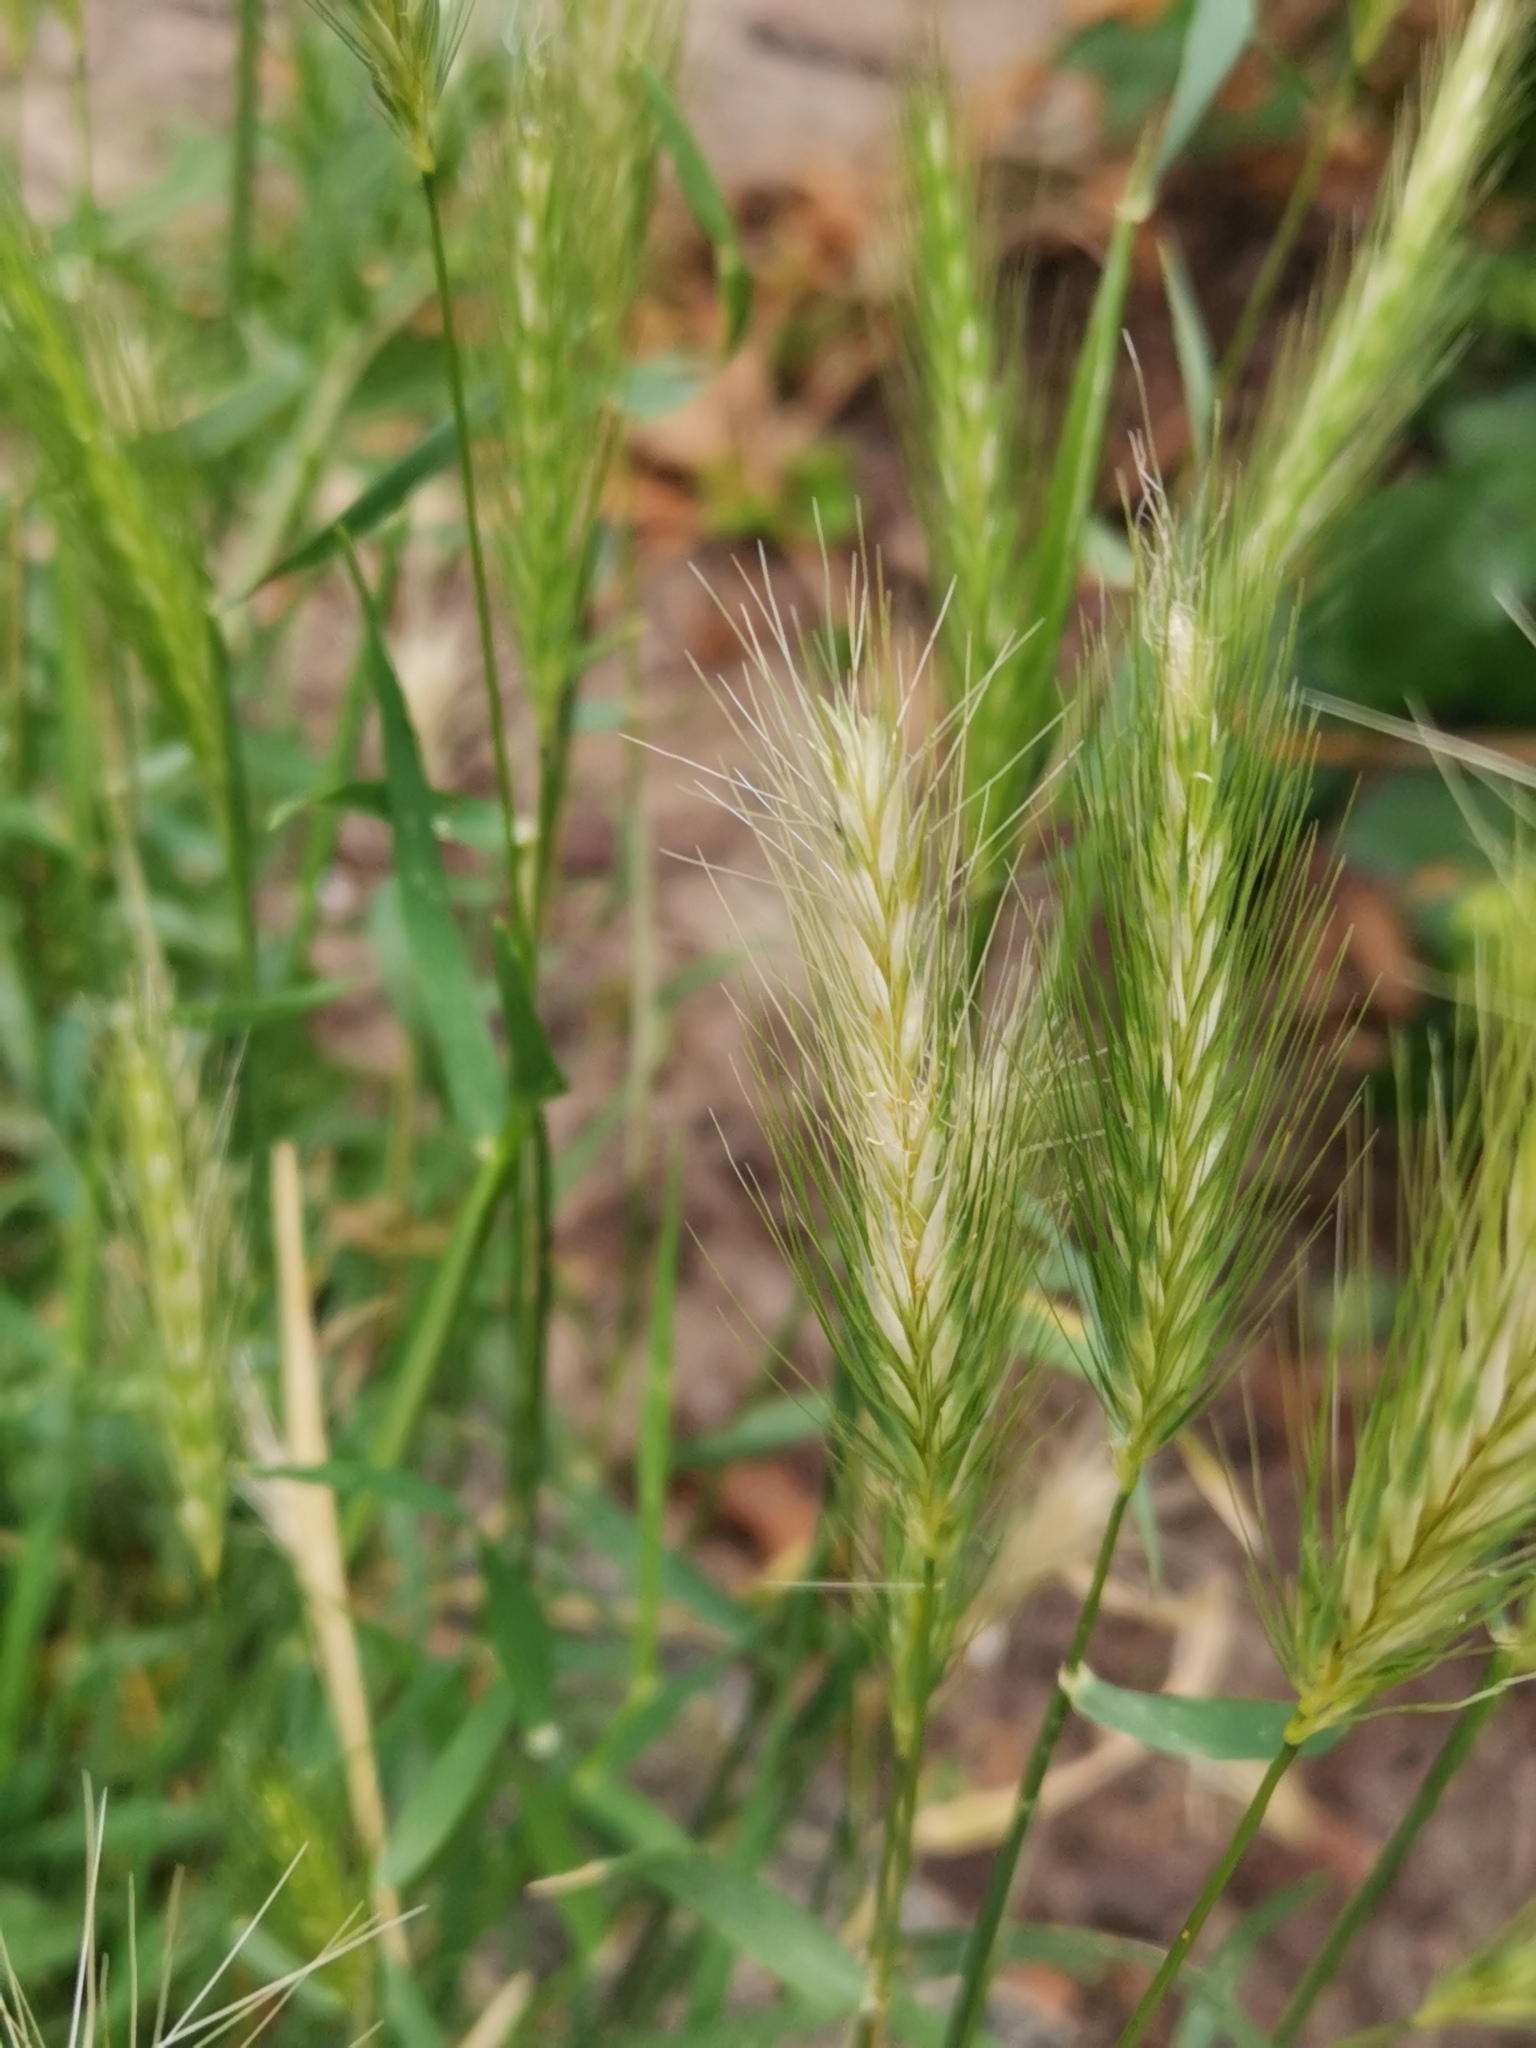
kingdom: Plantae
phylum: Tracheophyta
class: Liliopsida
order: Poales
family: Poaceae
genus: Hordeum
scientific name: Hordeum murinum
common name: Wall barley
